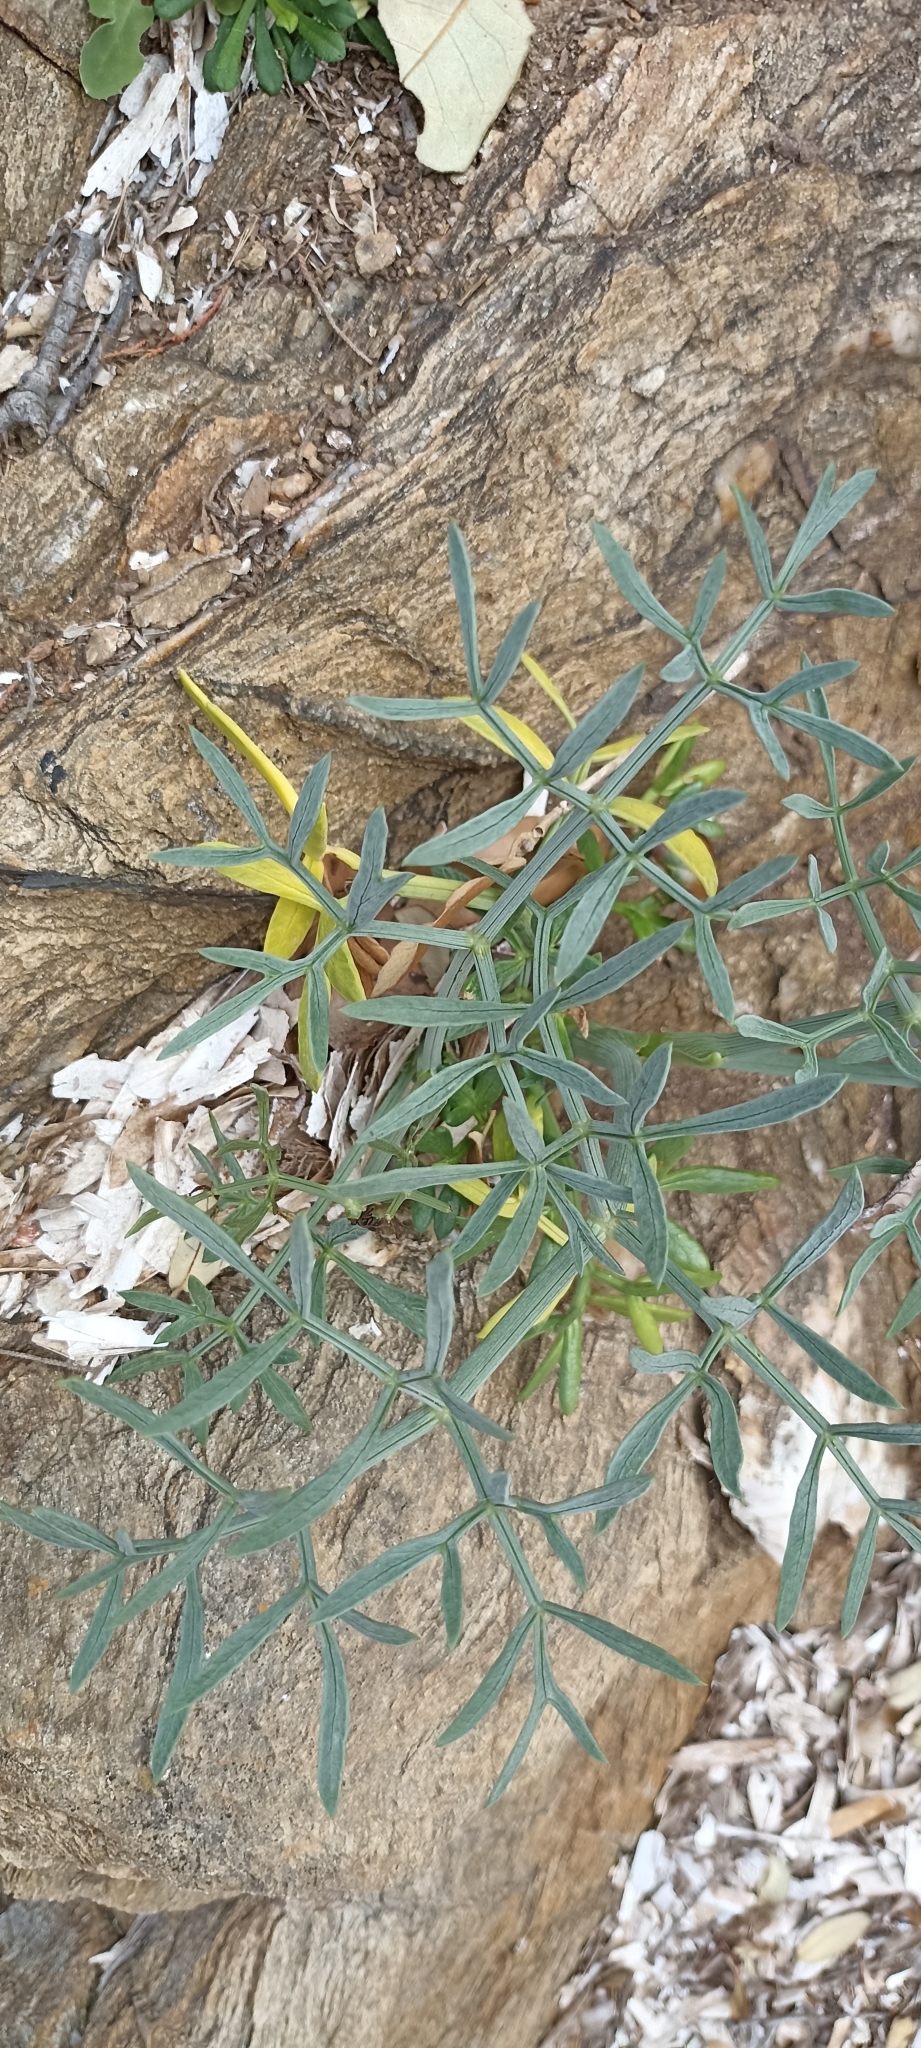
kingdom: Plantae
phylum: Tracheophyta
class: Magnoliopsida
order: Apiales
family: Apiaceae
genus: Crithmum
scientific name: Crithmum maritimum
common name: Rock samphire
